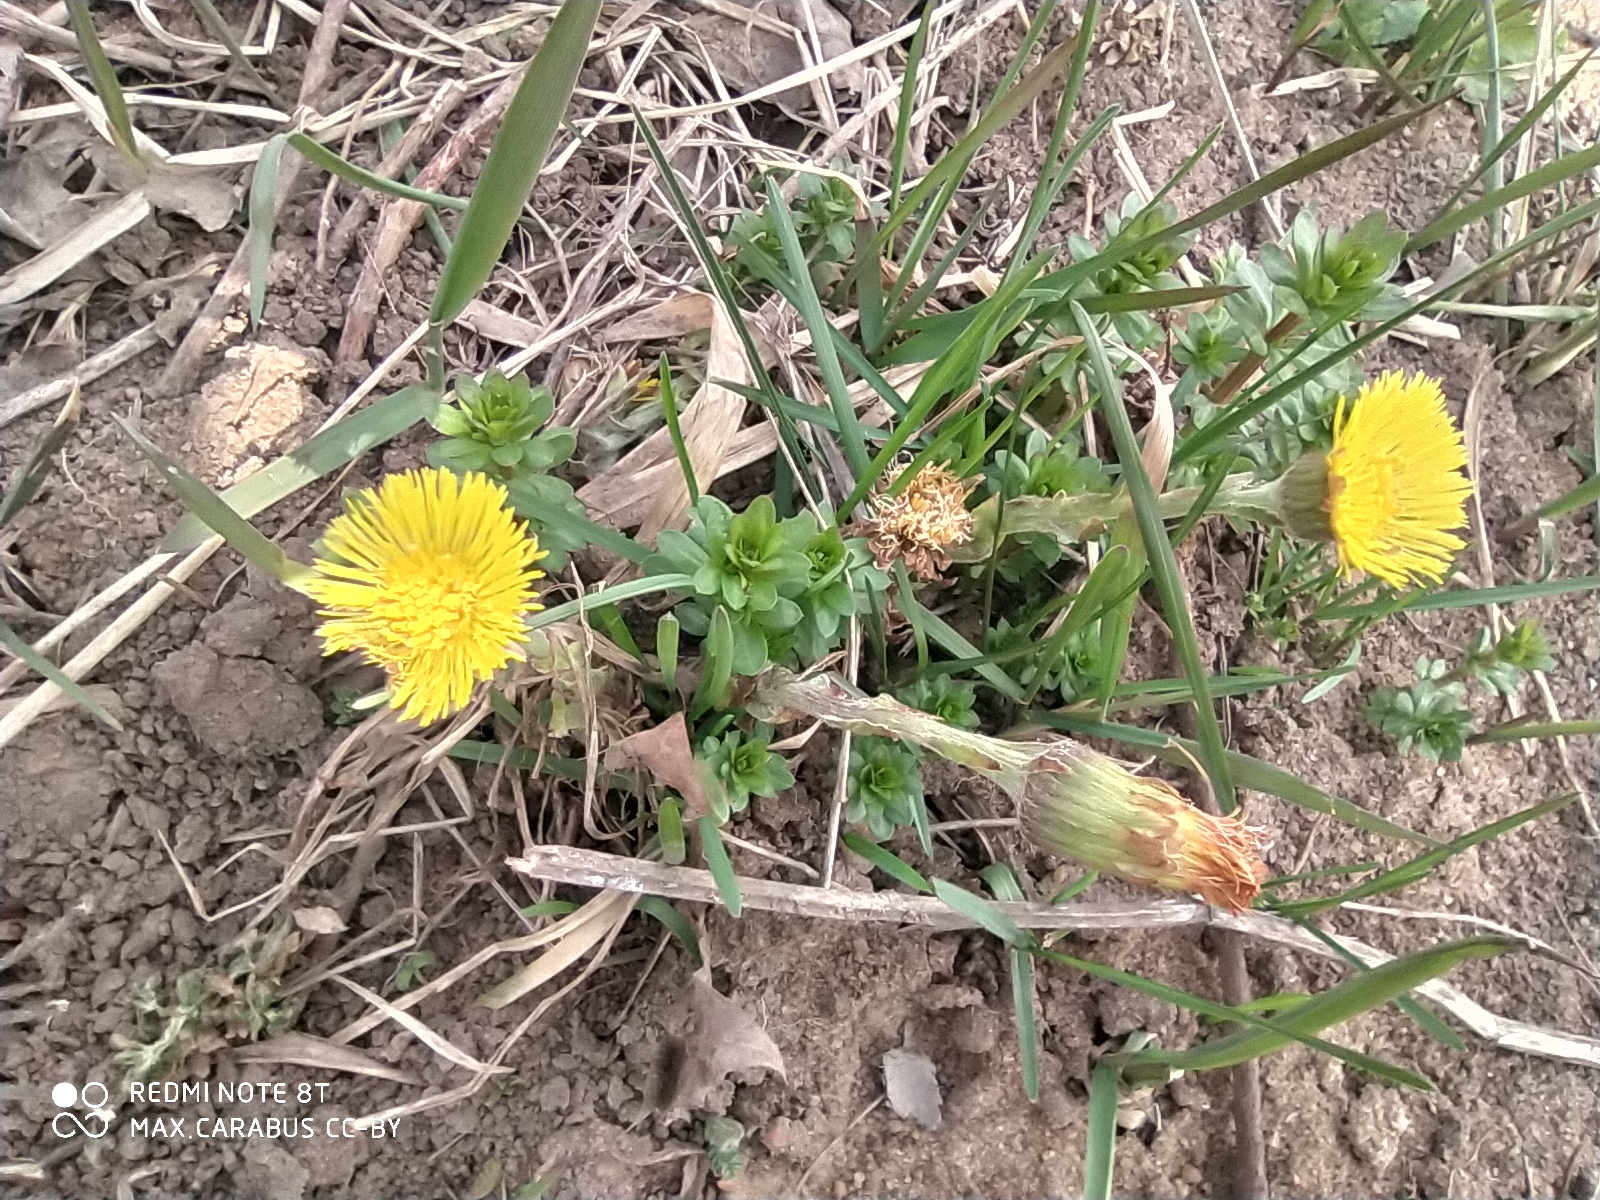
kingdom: Plantae
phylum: Tracheophyta
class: Magnoliopsida
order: Asterales
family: Asteraceae
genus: Tussilago
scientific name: Tussilago farfara
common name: Coltsfoot
